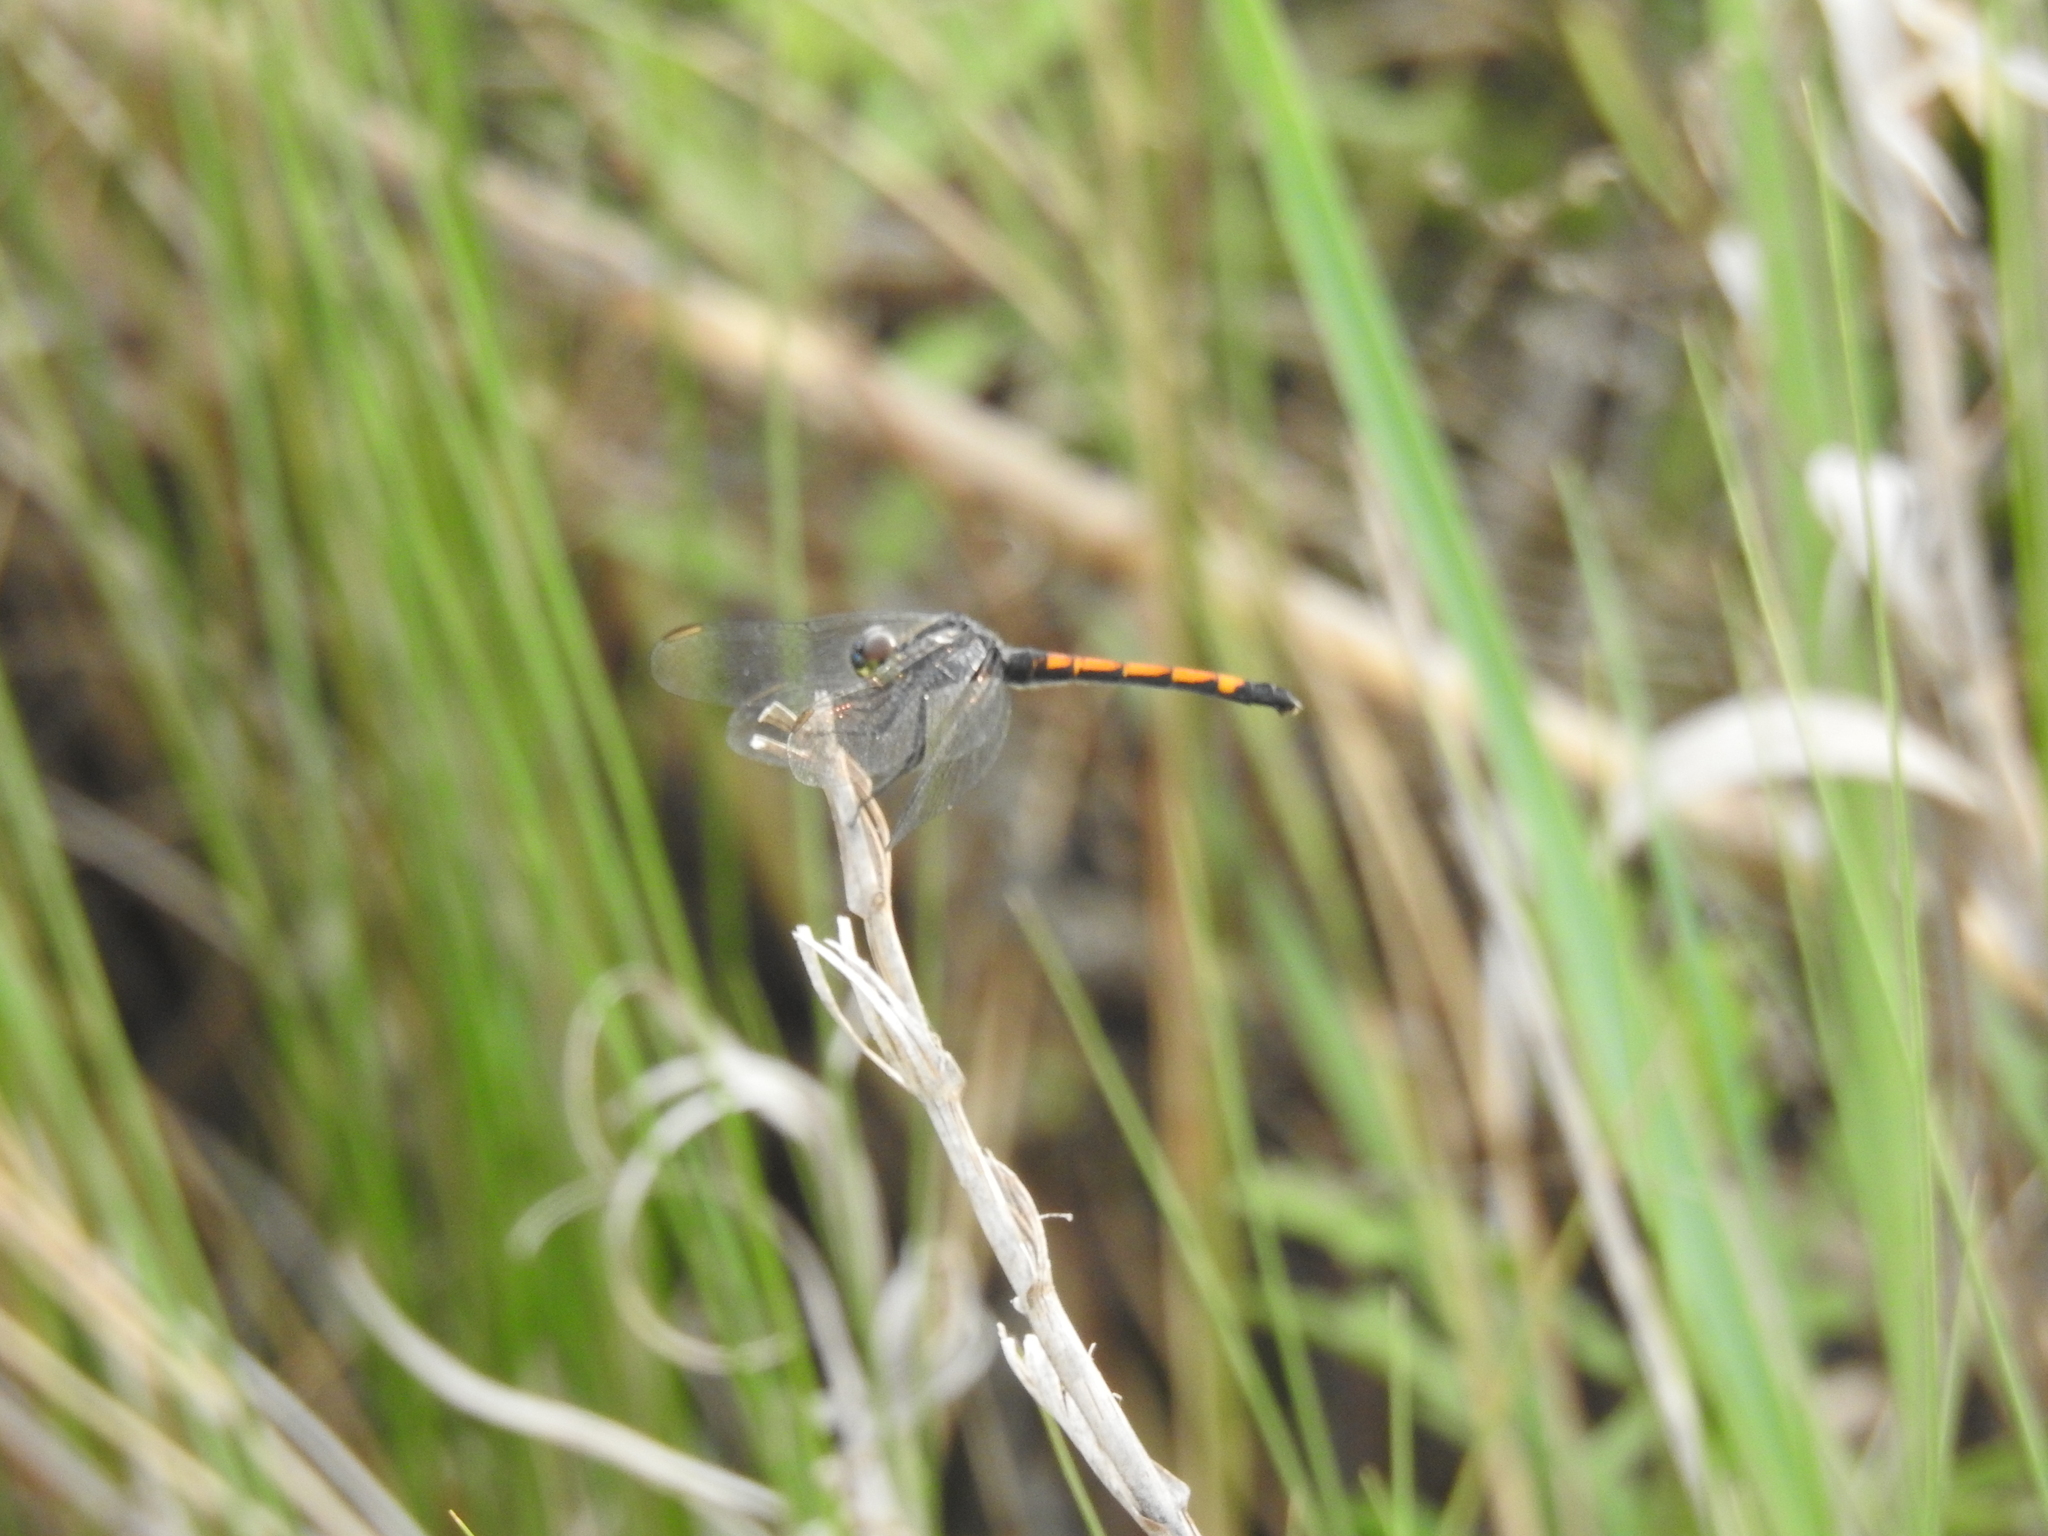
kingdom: Animalia
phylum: Arthropoda
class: Insecta
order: Odonata
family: Libellulidae
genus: Erythrodiplax
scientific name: Erythrodiplax berenice
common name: Seaside dragonlet
